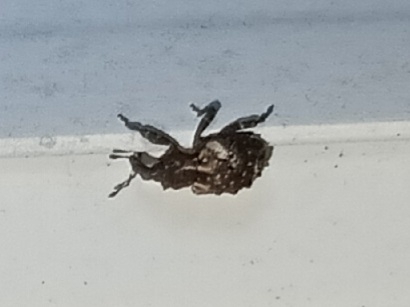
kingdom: Animalia
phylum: Arthropoda
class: Insecta
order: Coleoptera
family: Curculionidae
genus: Conotrachelus
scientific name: Conotrachelus coronatus
